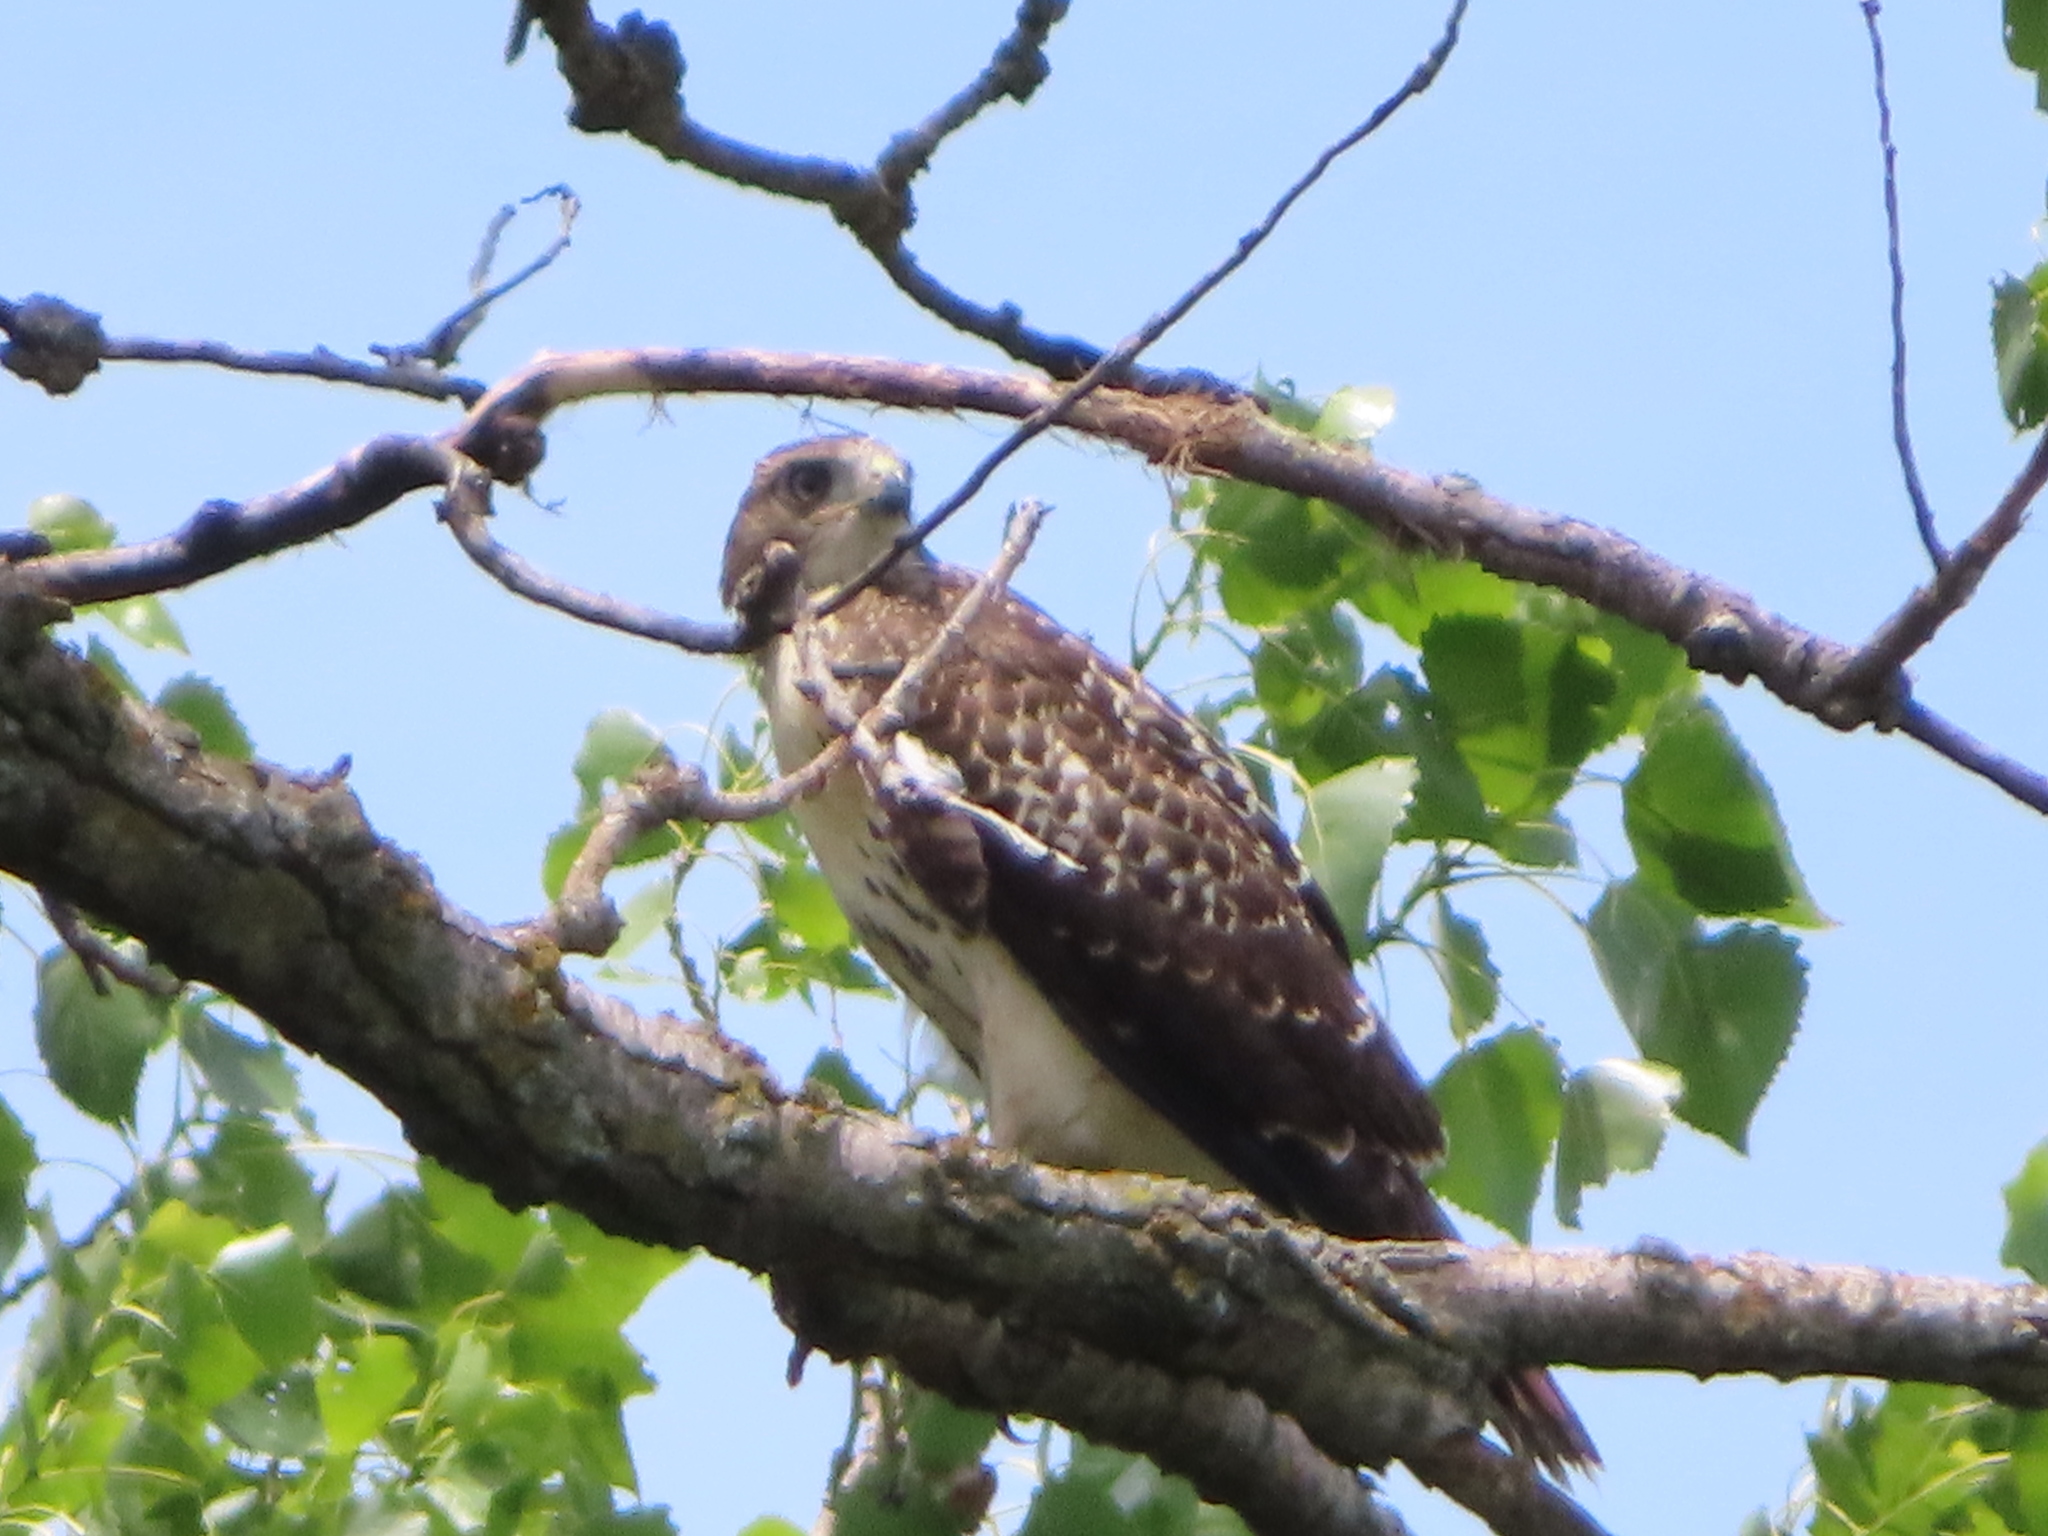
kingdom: Animalia
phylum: Chordata
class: Aves
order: Accipitriformes
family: Accipitridae
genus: Buteo
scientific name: Buteo jamaicensis
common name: Red-tailed hawk
